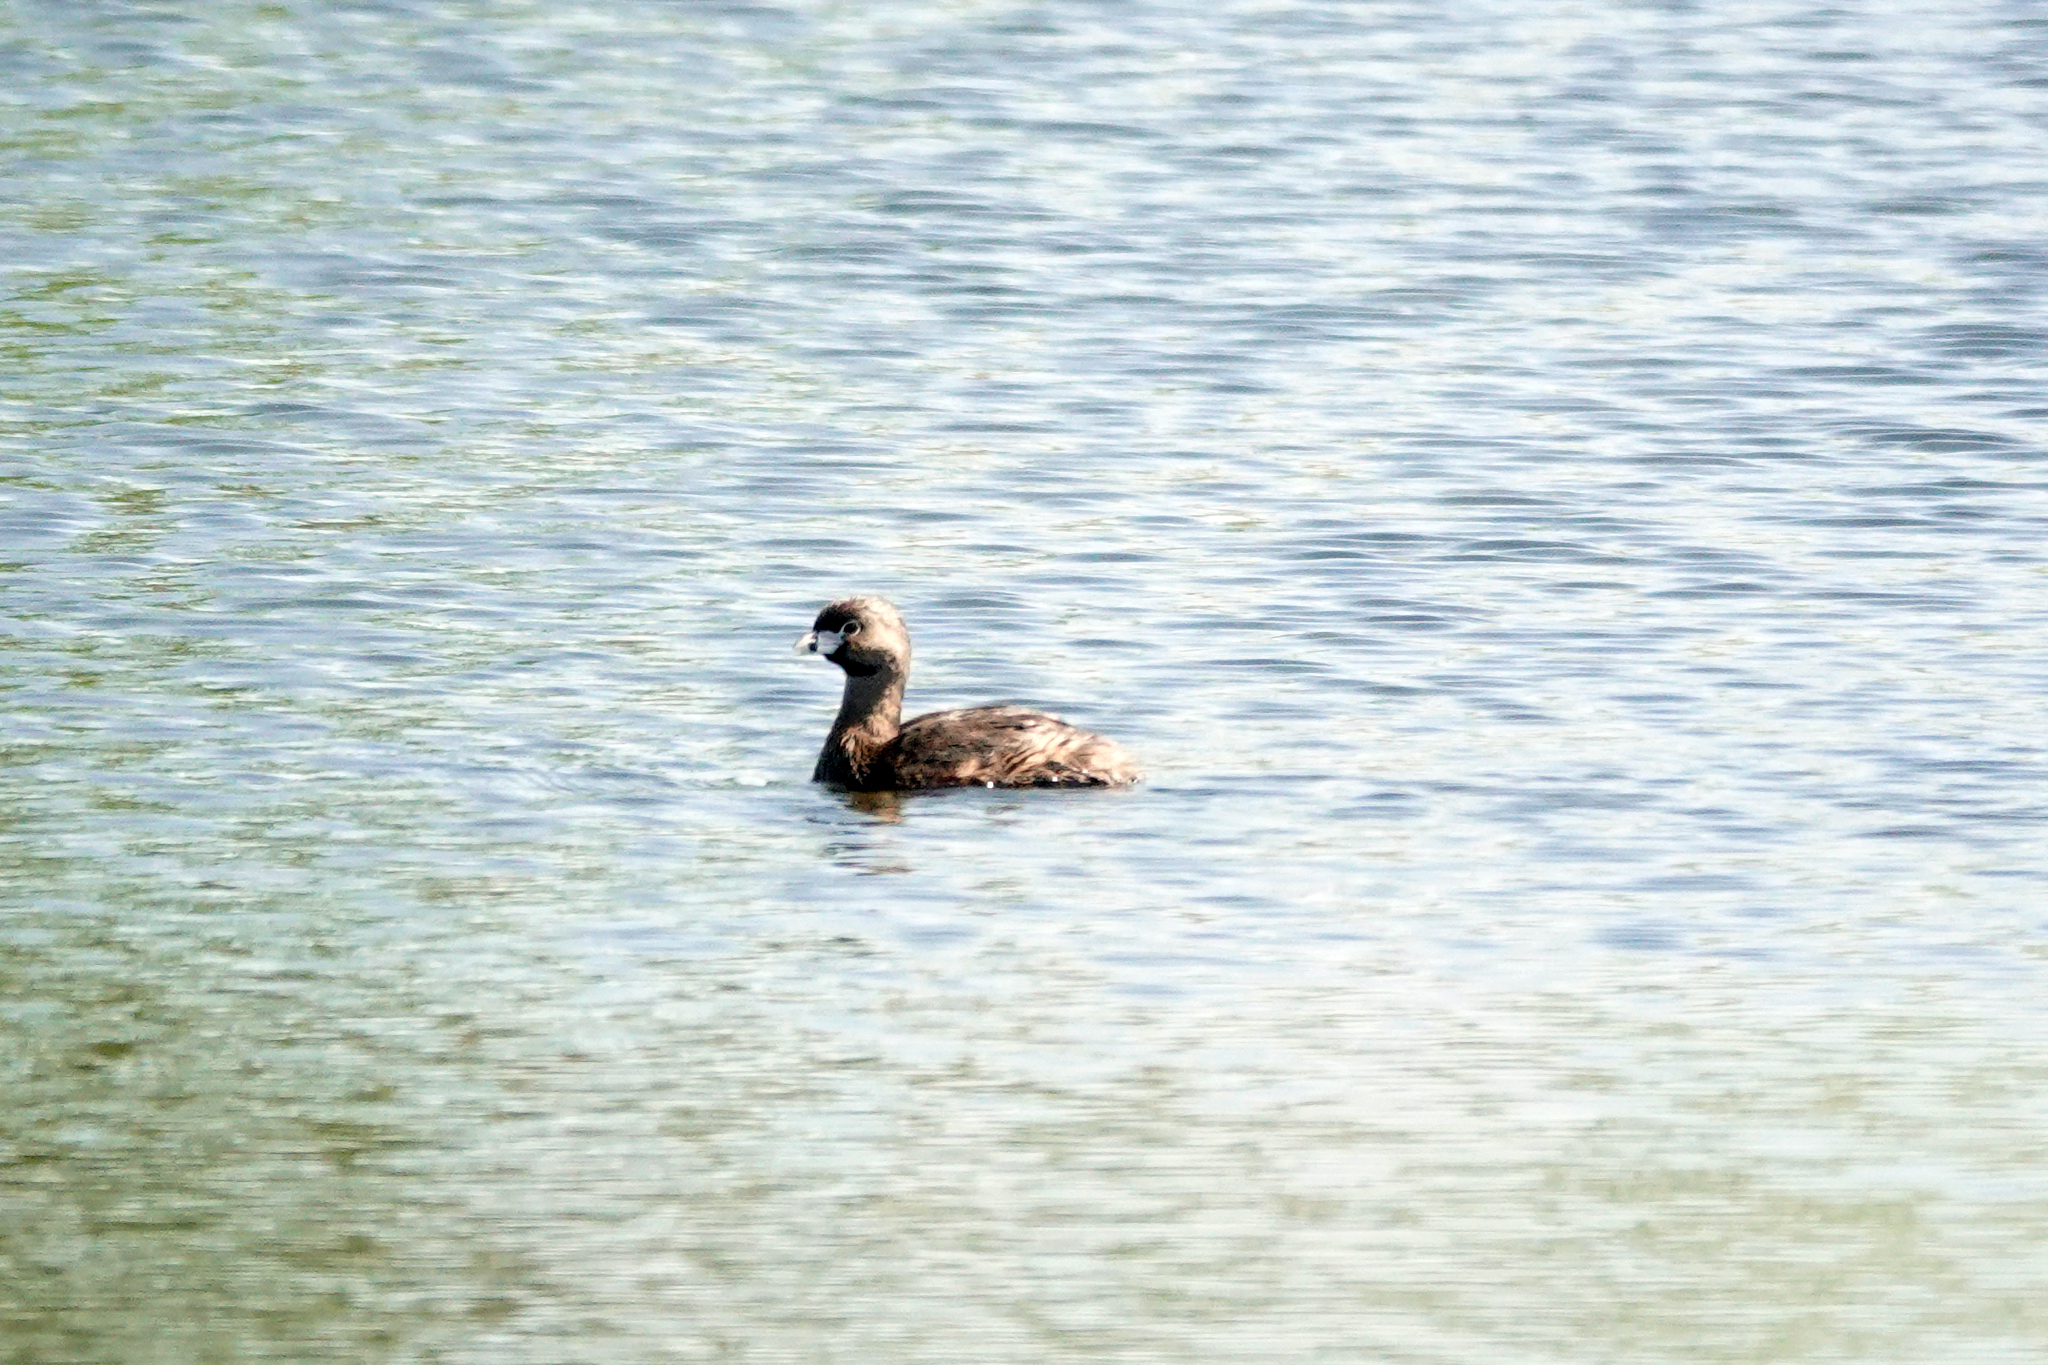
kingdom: Animalia
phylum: Chordata
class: Aves
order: Podicipediformes
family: Podicipedidae
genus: Podilymbus
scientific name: Podilymbus podiceps
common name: Pied-billed grebe
